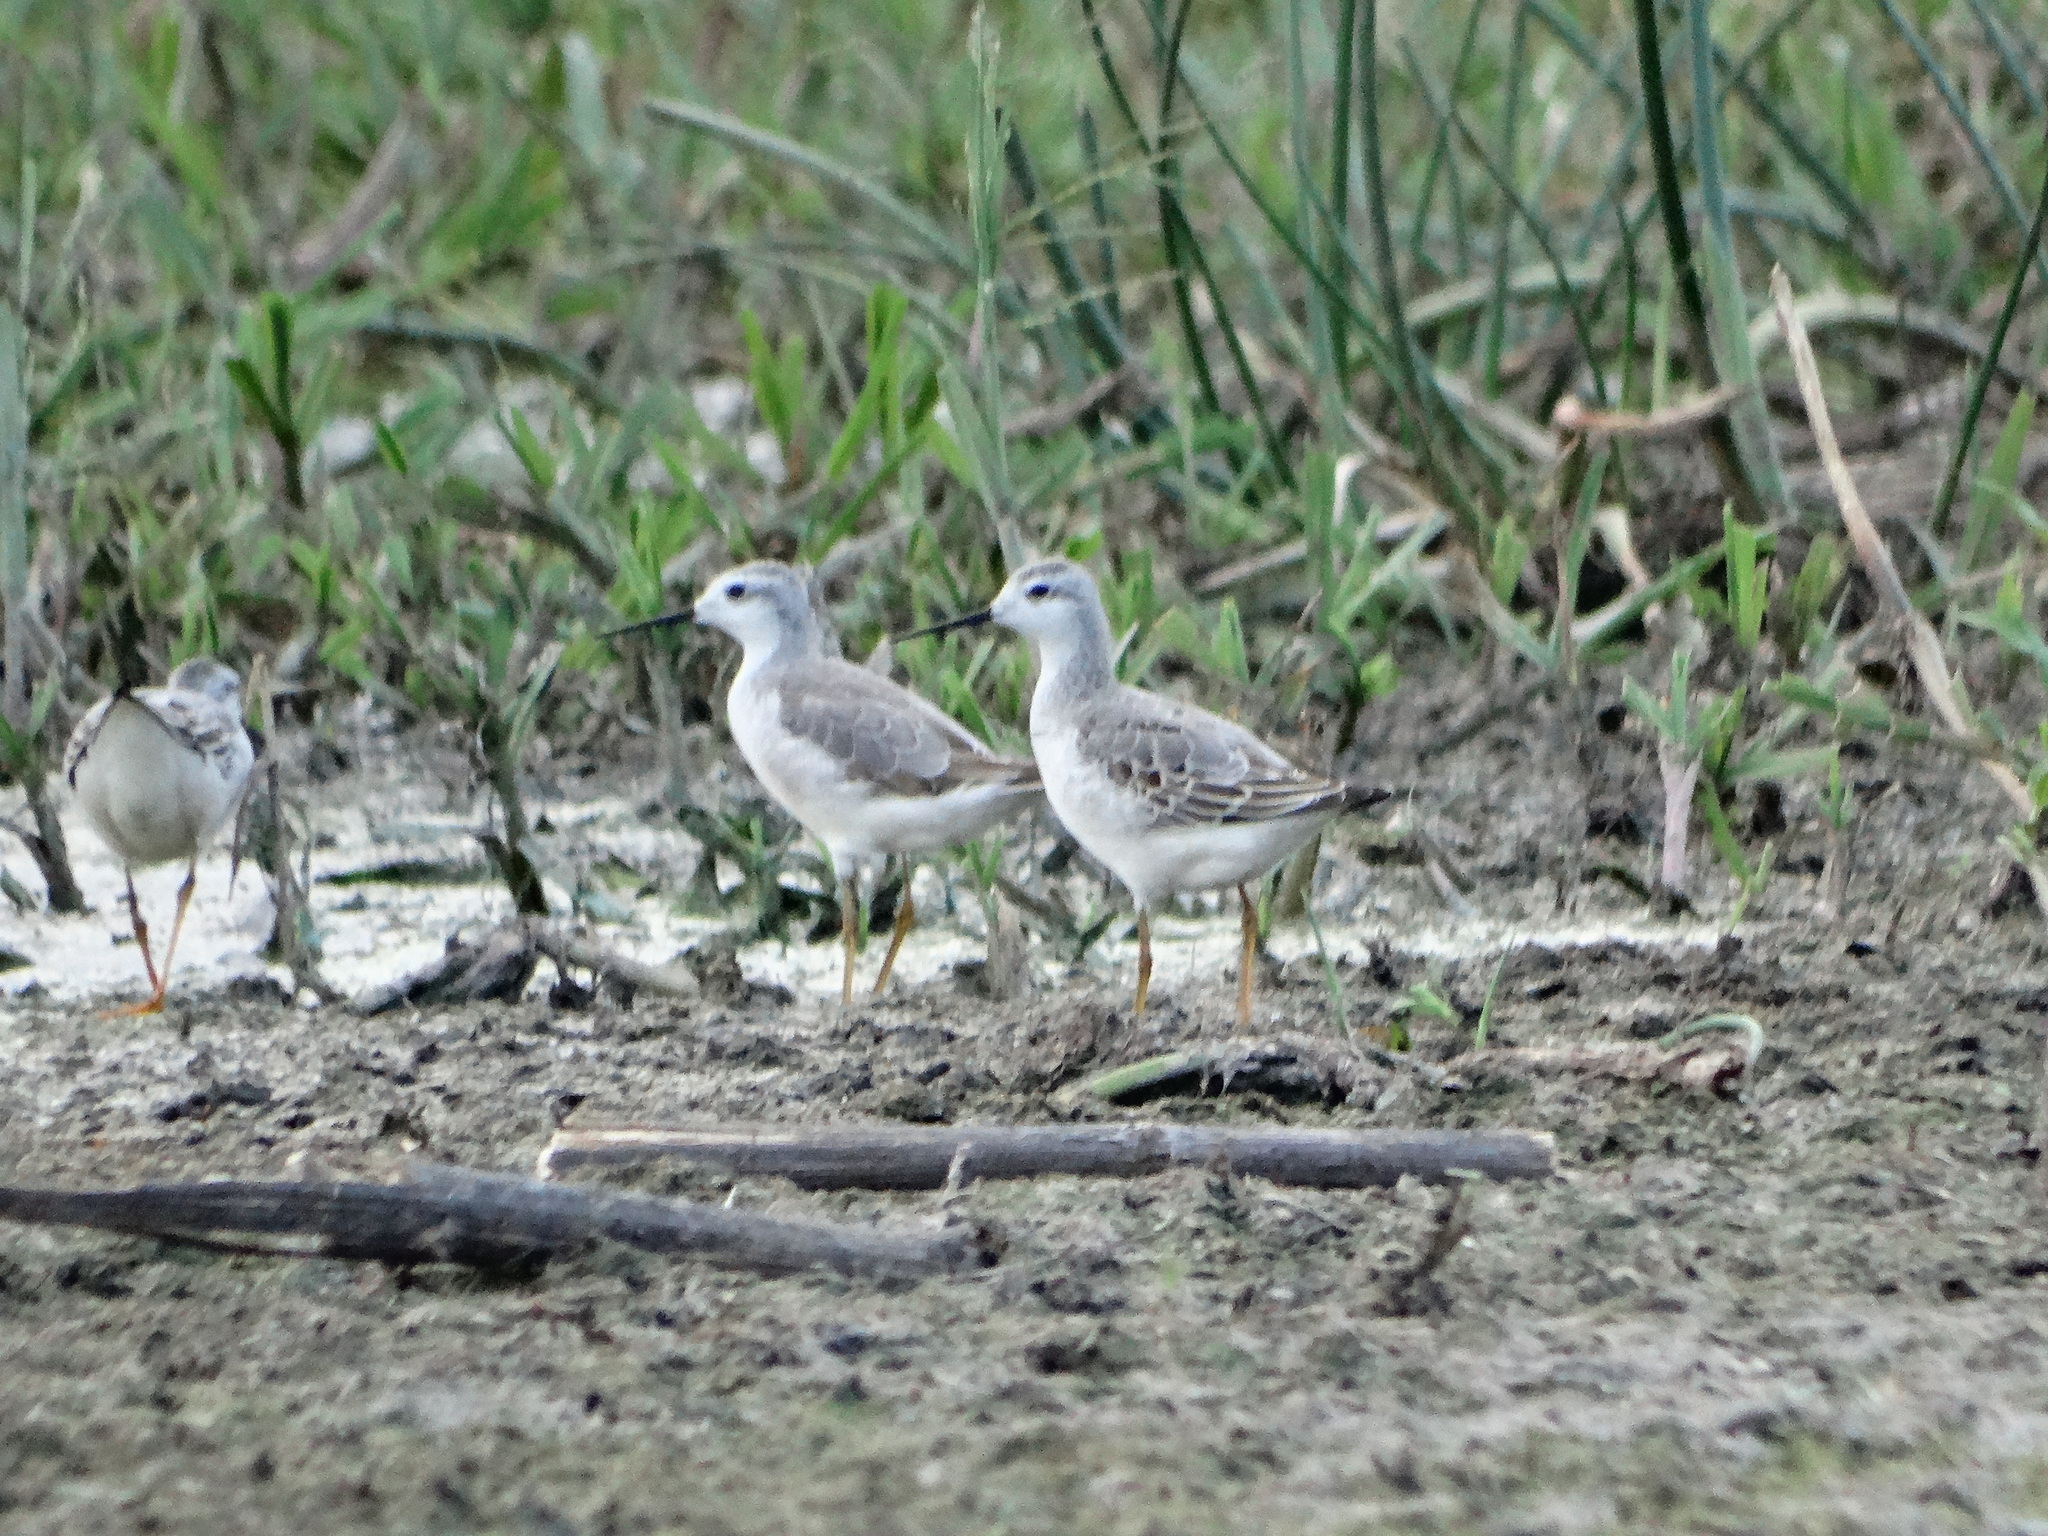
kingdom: Animalia
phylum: Chordata
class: Aves
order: Charadriiformes
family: Scolopacidae
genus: Phalaropus
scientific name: Phalaropus tricolor
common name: Wilson's phalarope
